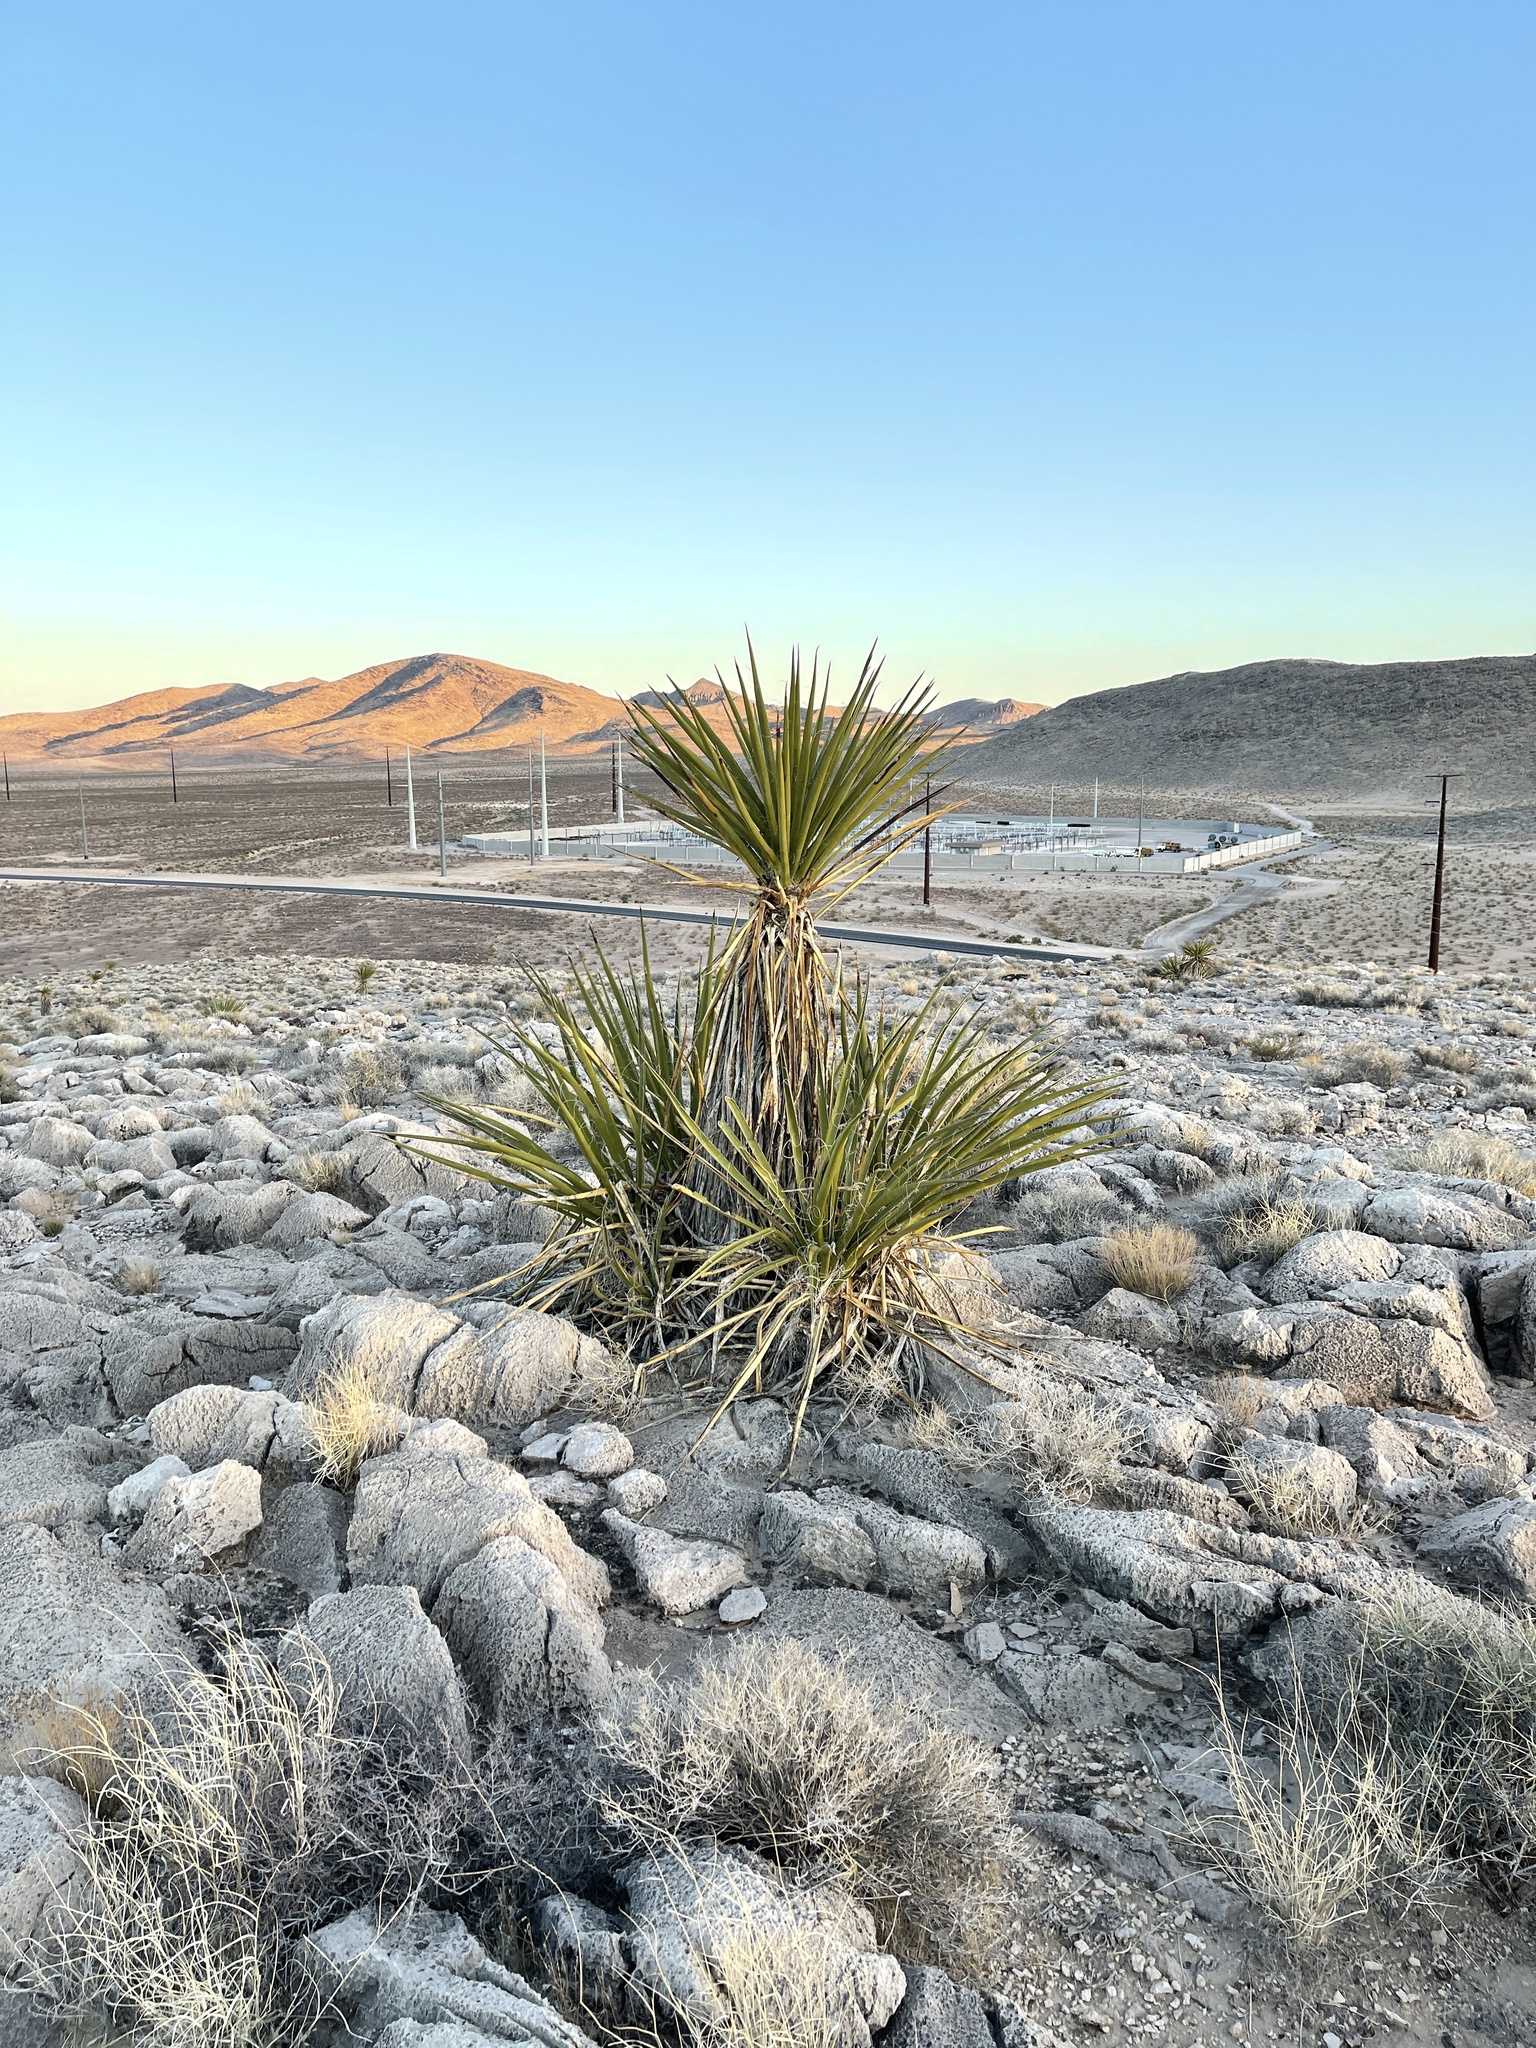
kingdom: Plantae
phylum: Tracheophyta
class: Liliopsida
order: Asparagales
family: Asparagaceae
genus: Yucca
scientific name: Yucca schidigera
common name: Mojave yucca
